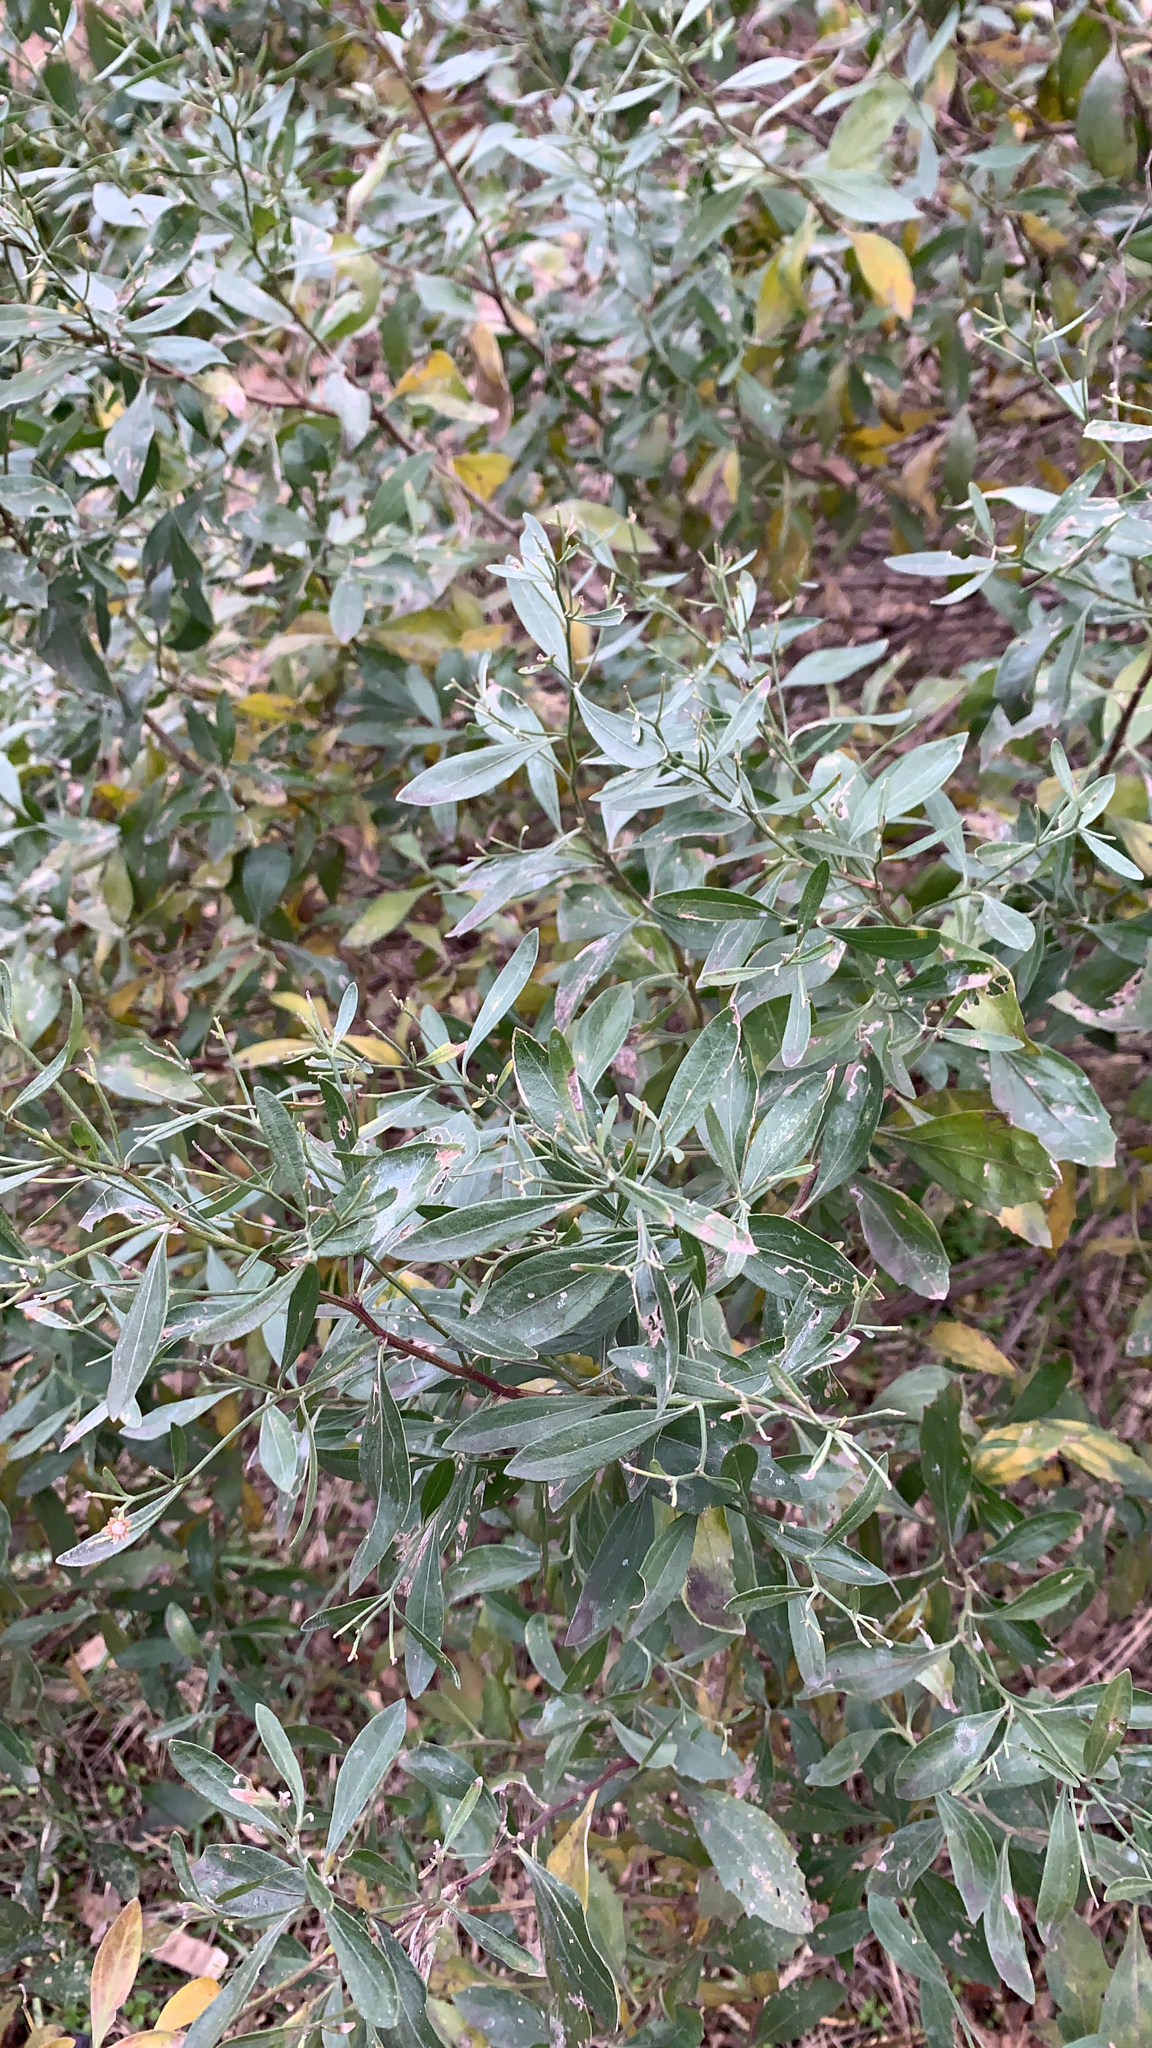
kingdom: Plantae
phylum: Tracheophyta
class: Magnoliopsida
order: Asterales
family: Asteraceae
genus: Baccharis
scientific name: Baccharis halimifolia
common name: Eastern baccharis
